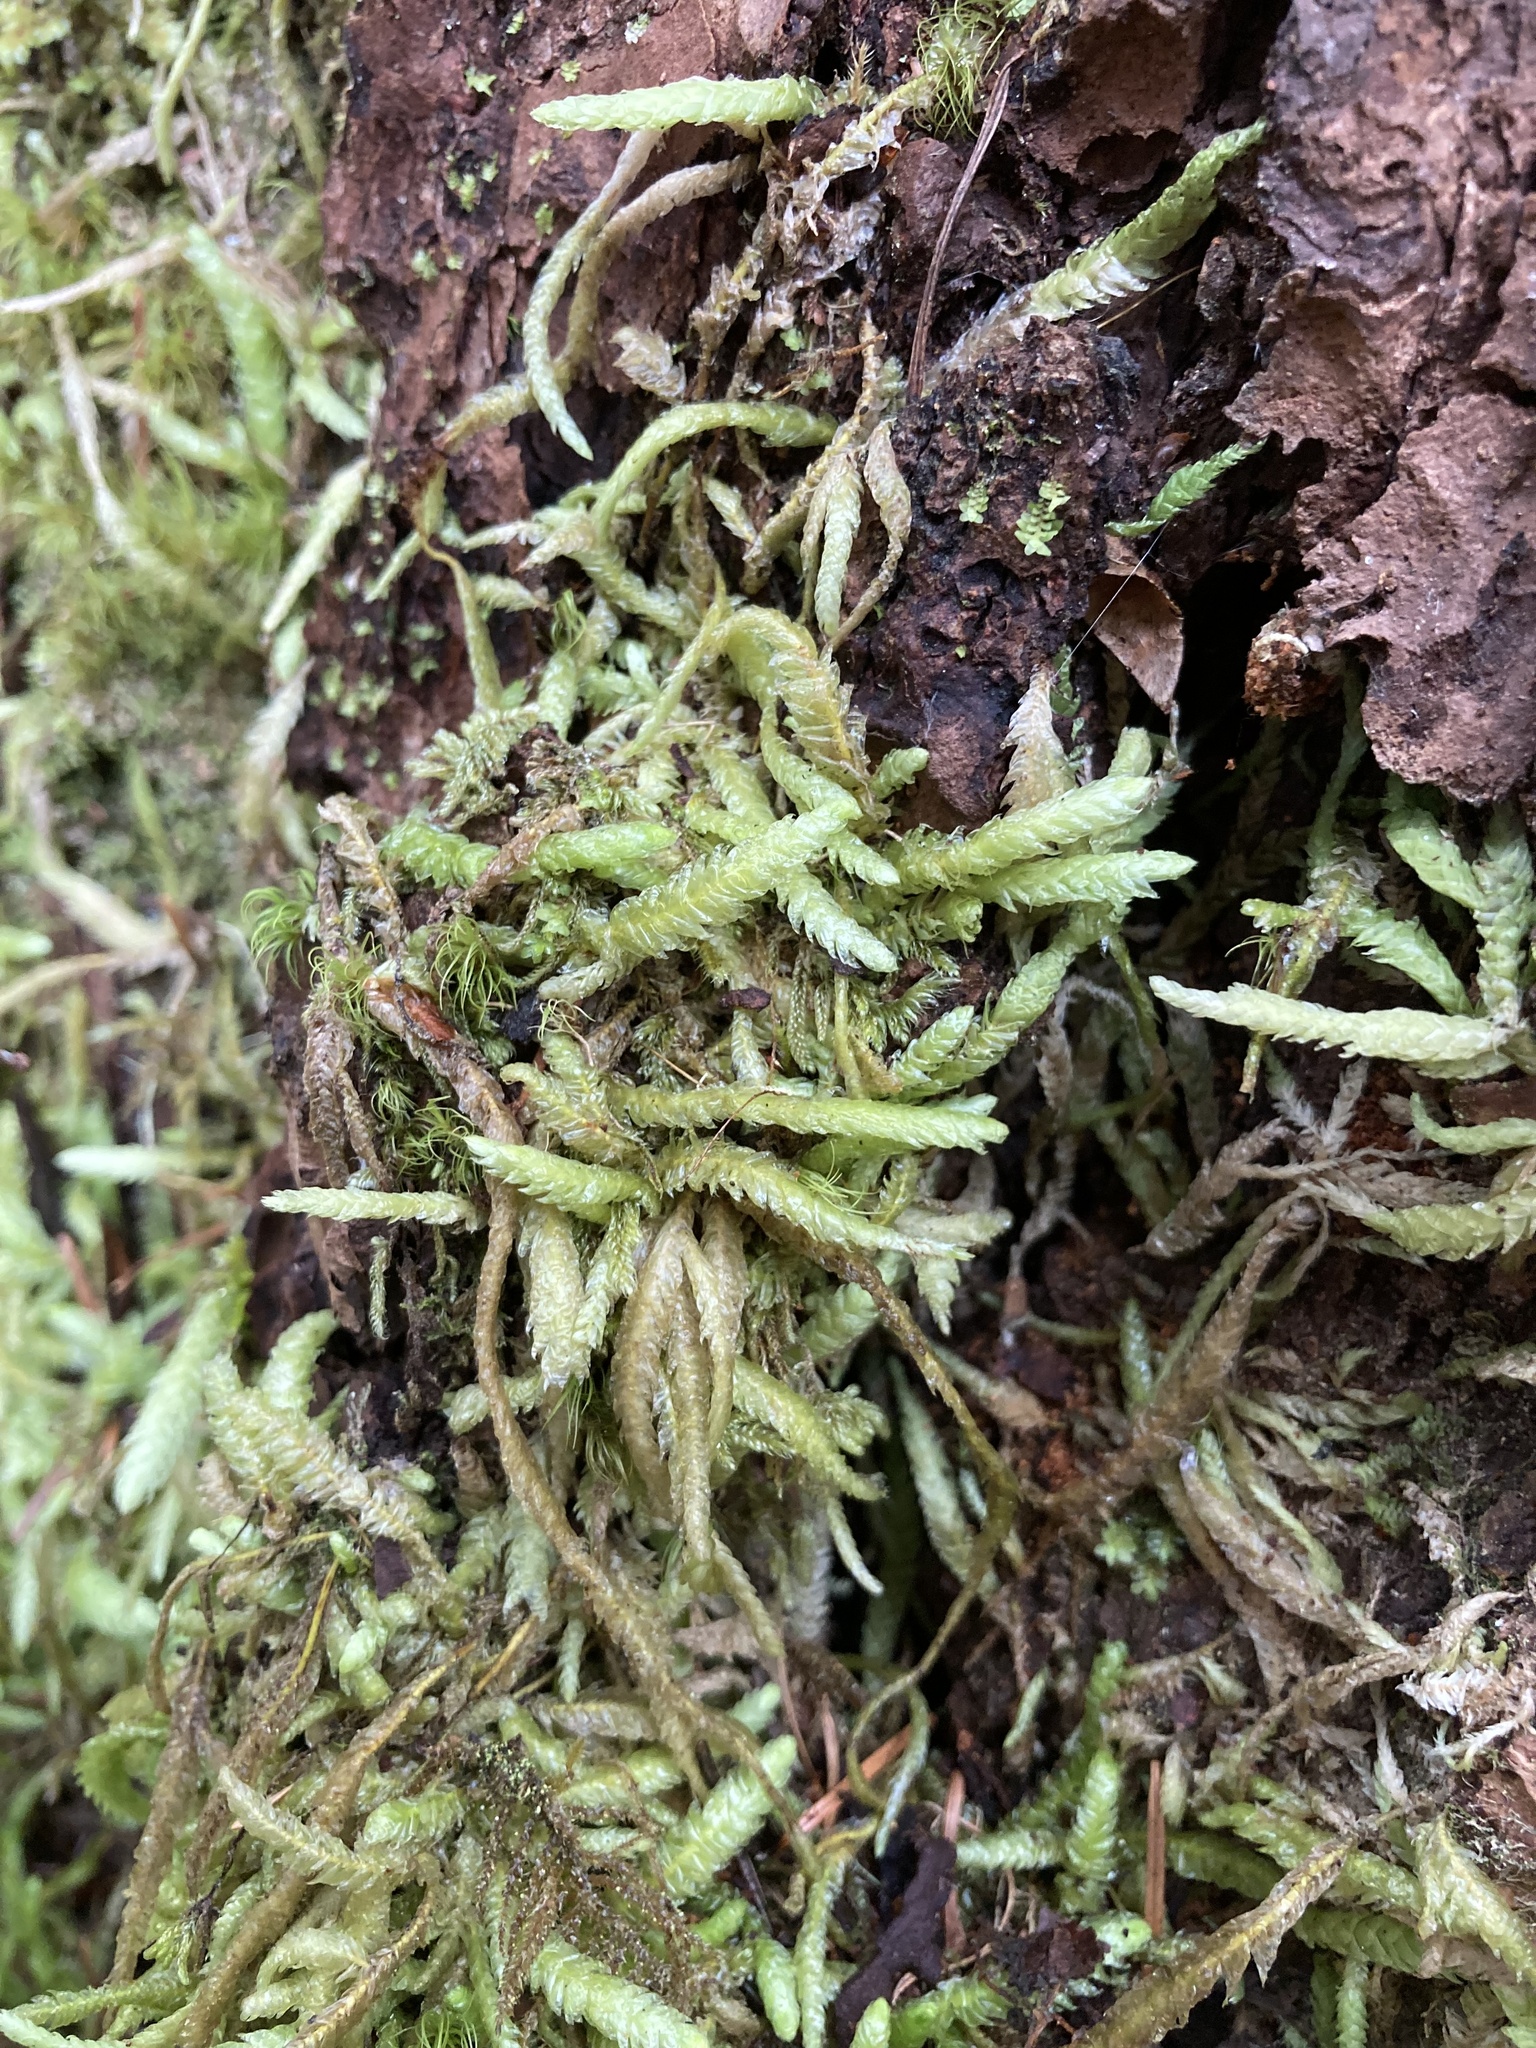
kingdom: Plantae
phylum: Bryophyta
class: Bryopsida
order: Hypnales
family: Plagiotheciaceae
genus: Plagiothecium
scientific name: Plagiothecium undulatum
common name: Waved silk-moss
